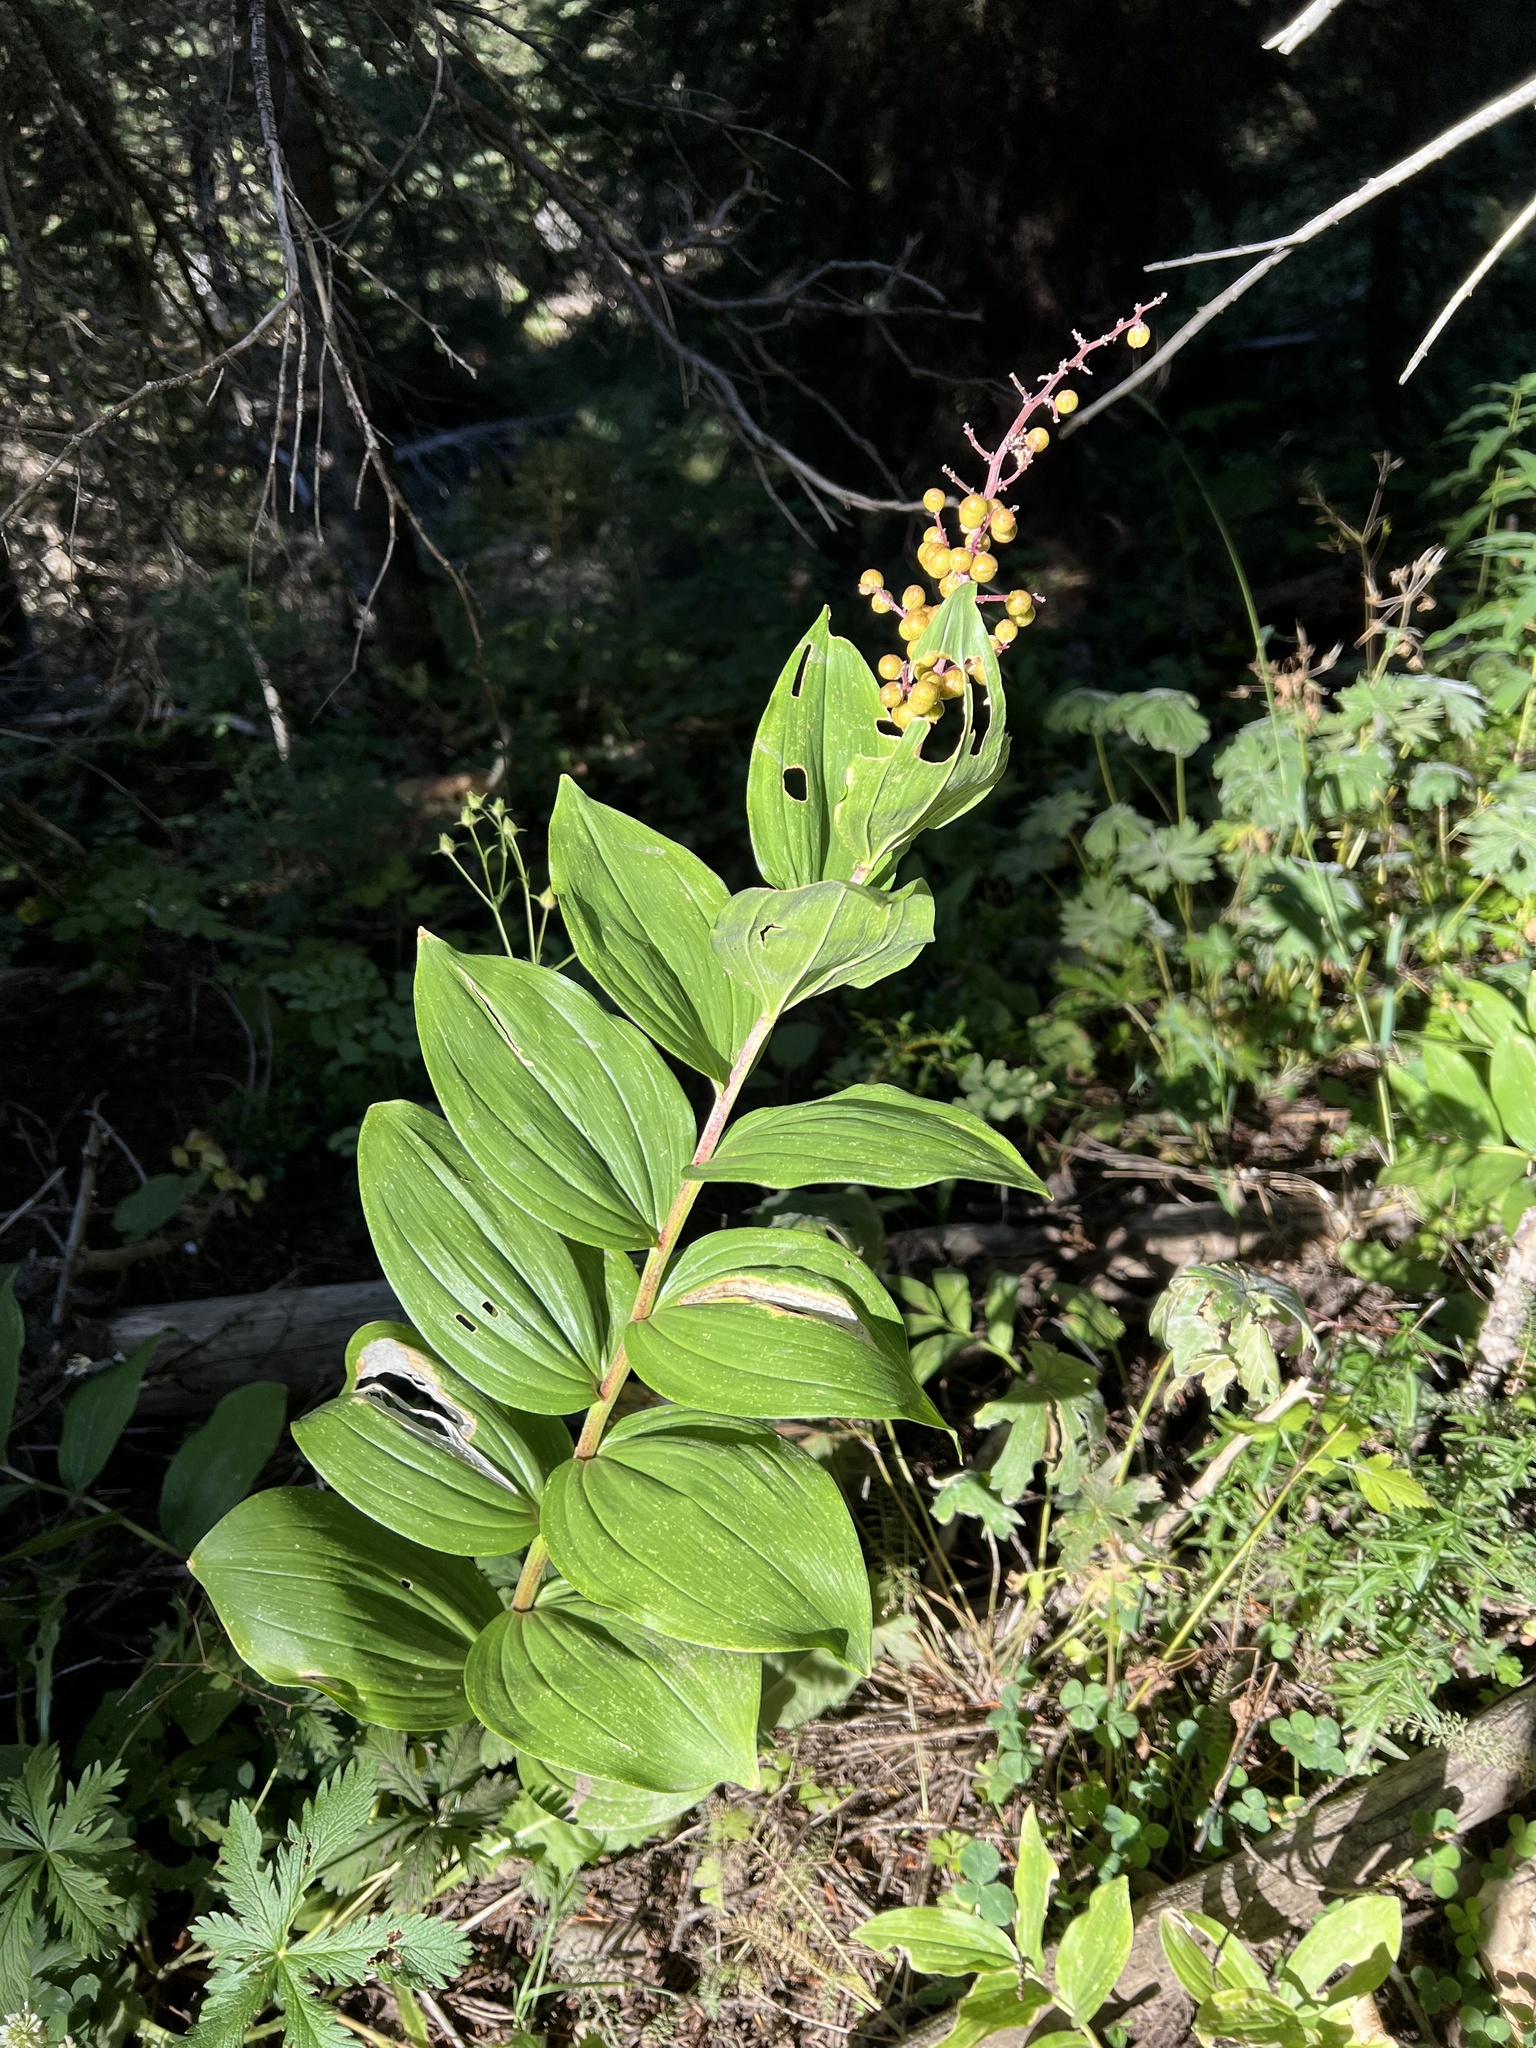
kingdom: Plantae
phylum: Tracheophyta
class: Liliopsida
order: Asparagales
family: Asparagaceae
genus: Maianthemum
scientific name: Maianthemum racemosum
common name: False spikenard
